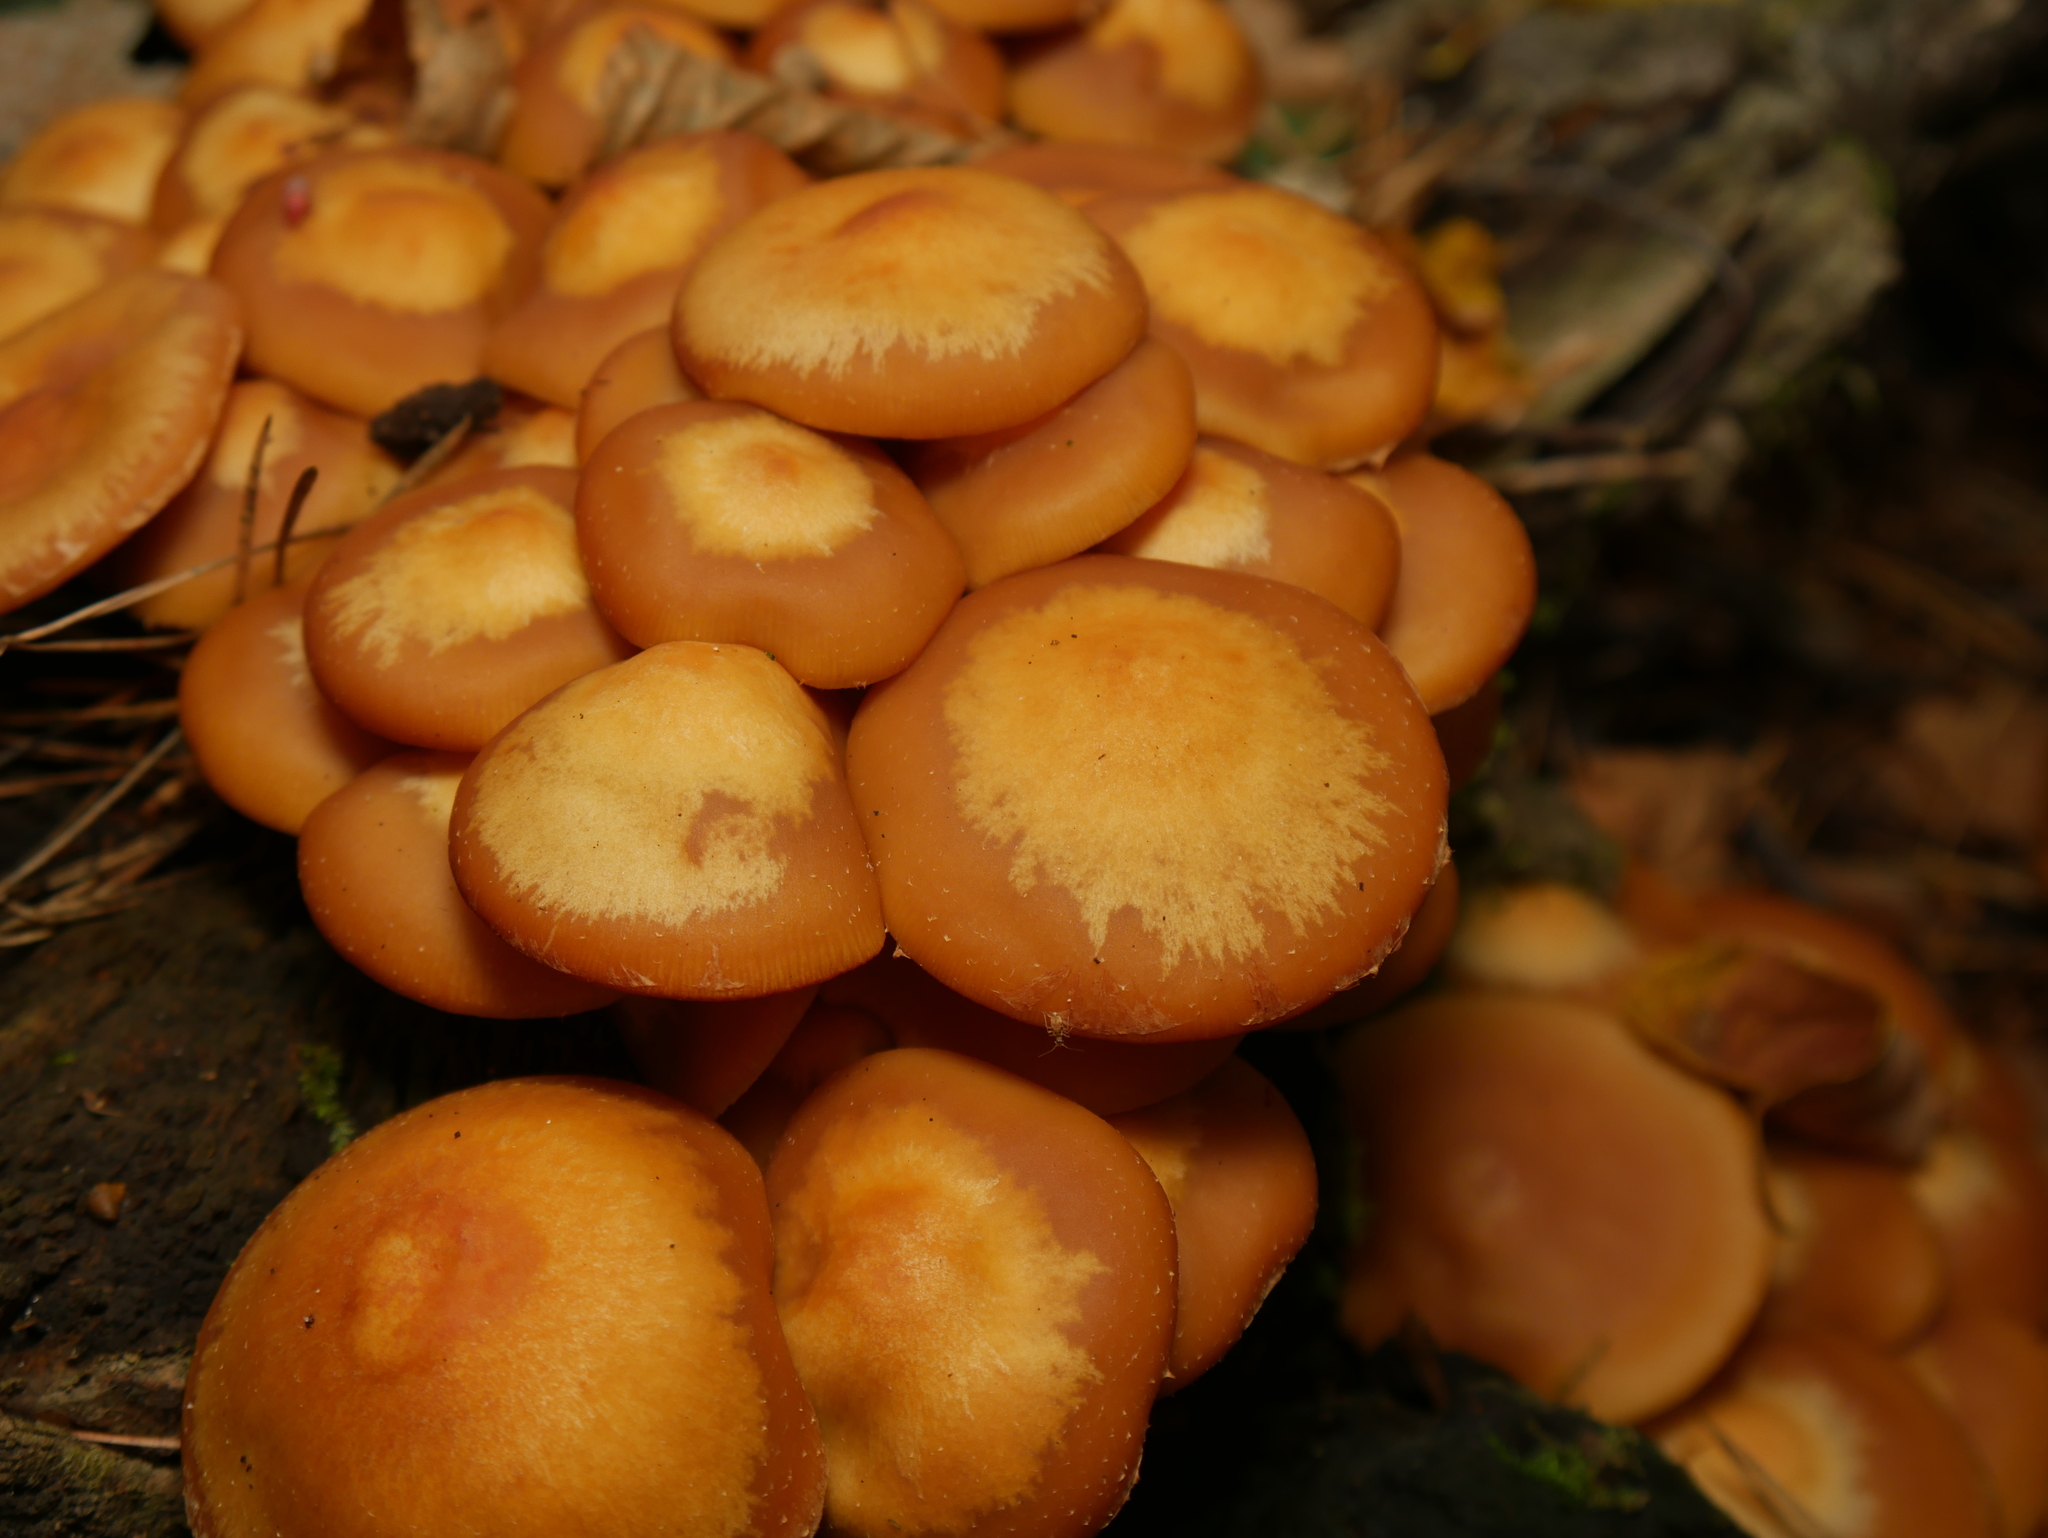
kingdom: Fungi
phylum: Basidiomycota
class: Agaricomycetes
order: Agaricales
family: Strophariaceae
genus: Kuehneromyces
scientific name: Kuehneromyces mutabilis
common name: Sheathed woodtuft
